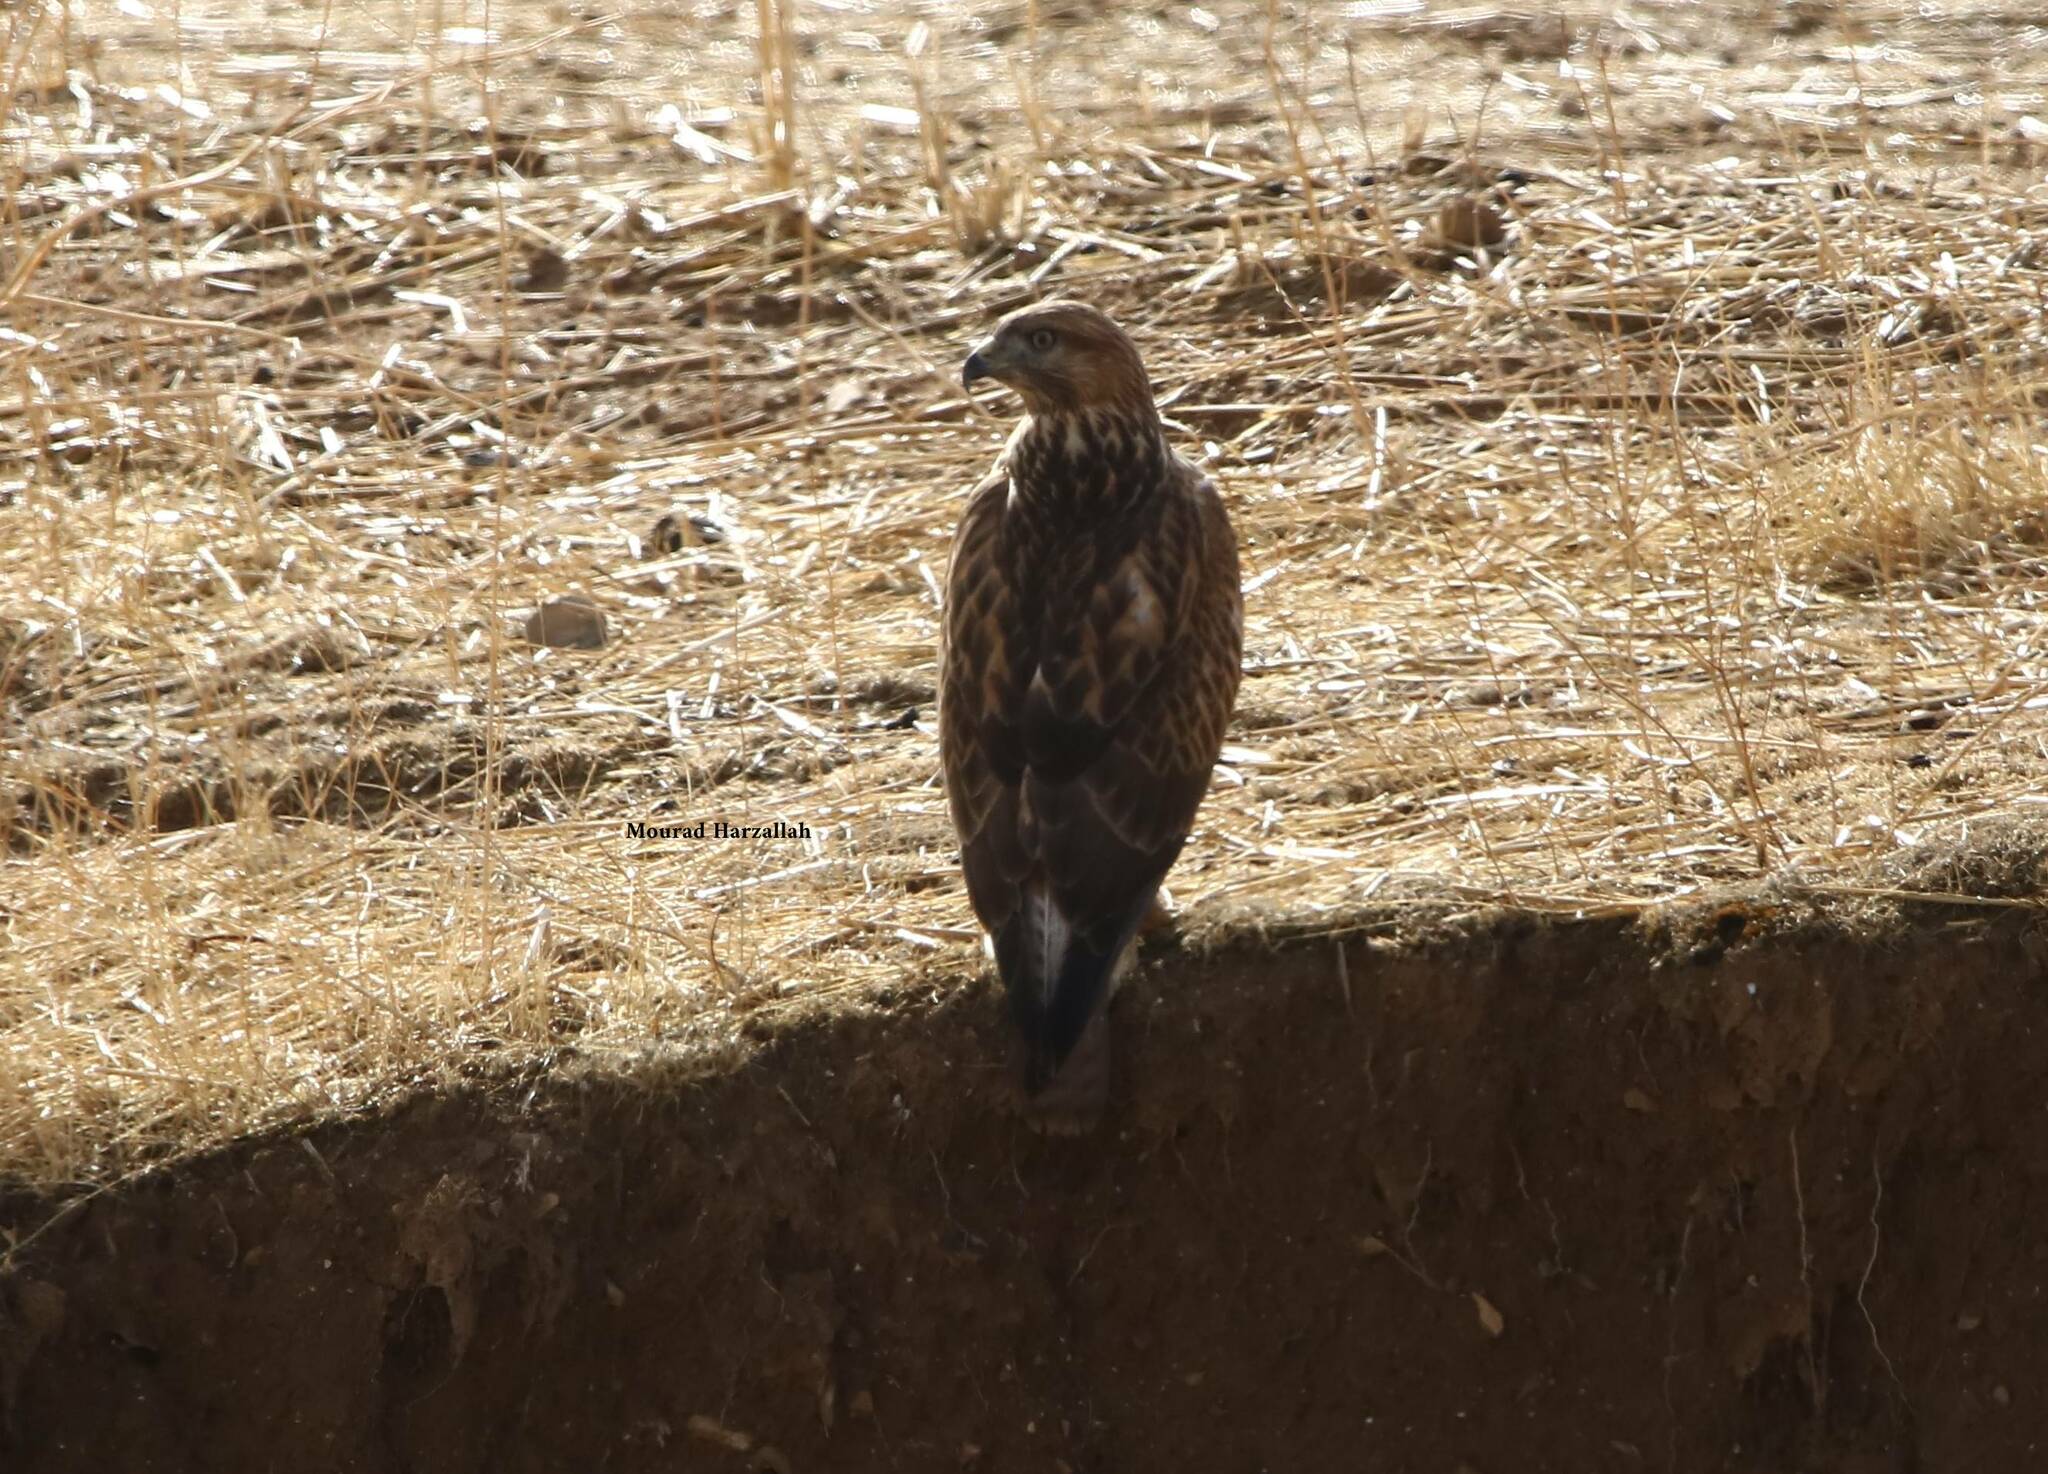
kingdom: Animalia
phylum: Chordata
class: Aves
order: Accipitriformes
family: Accipitridae
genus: Buteo
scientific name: Buteo rufinus
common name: Long-legged buzzard
